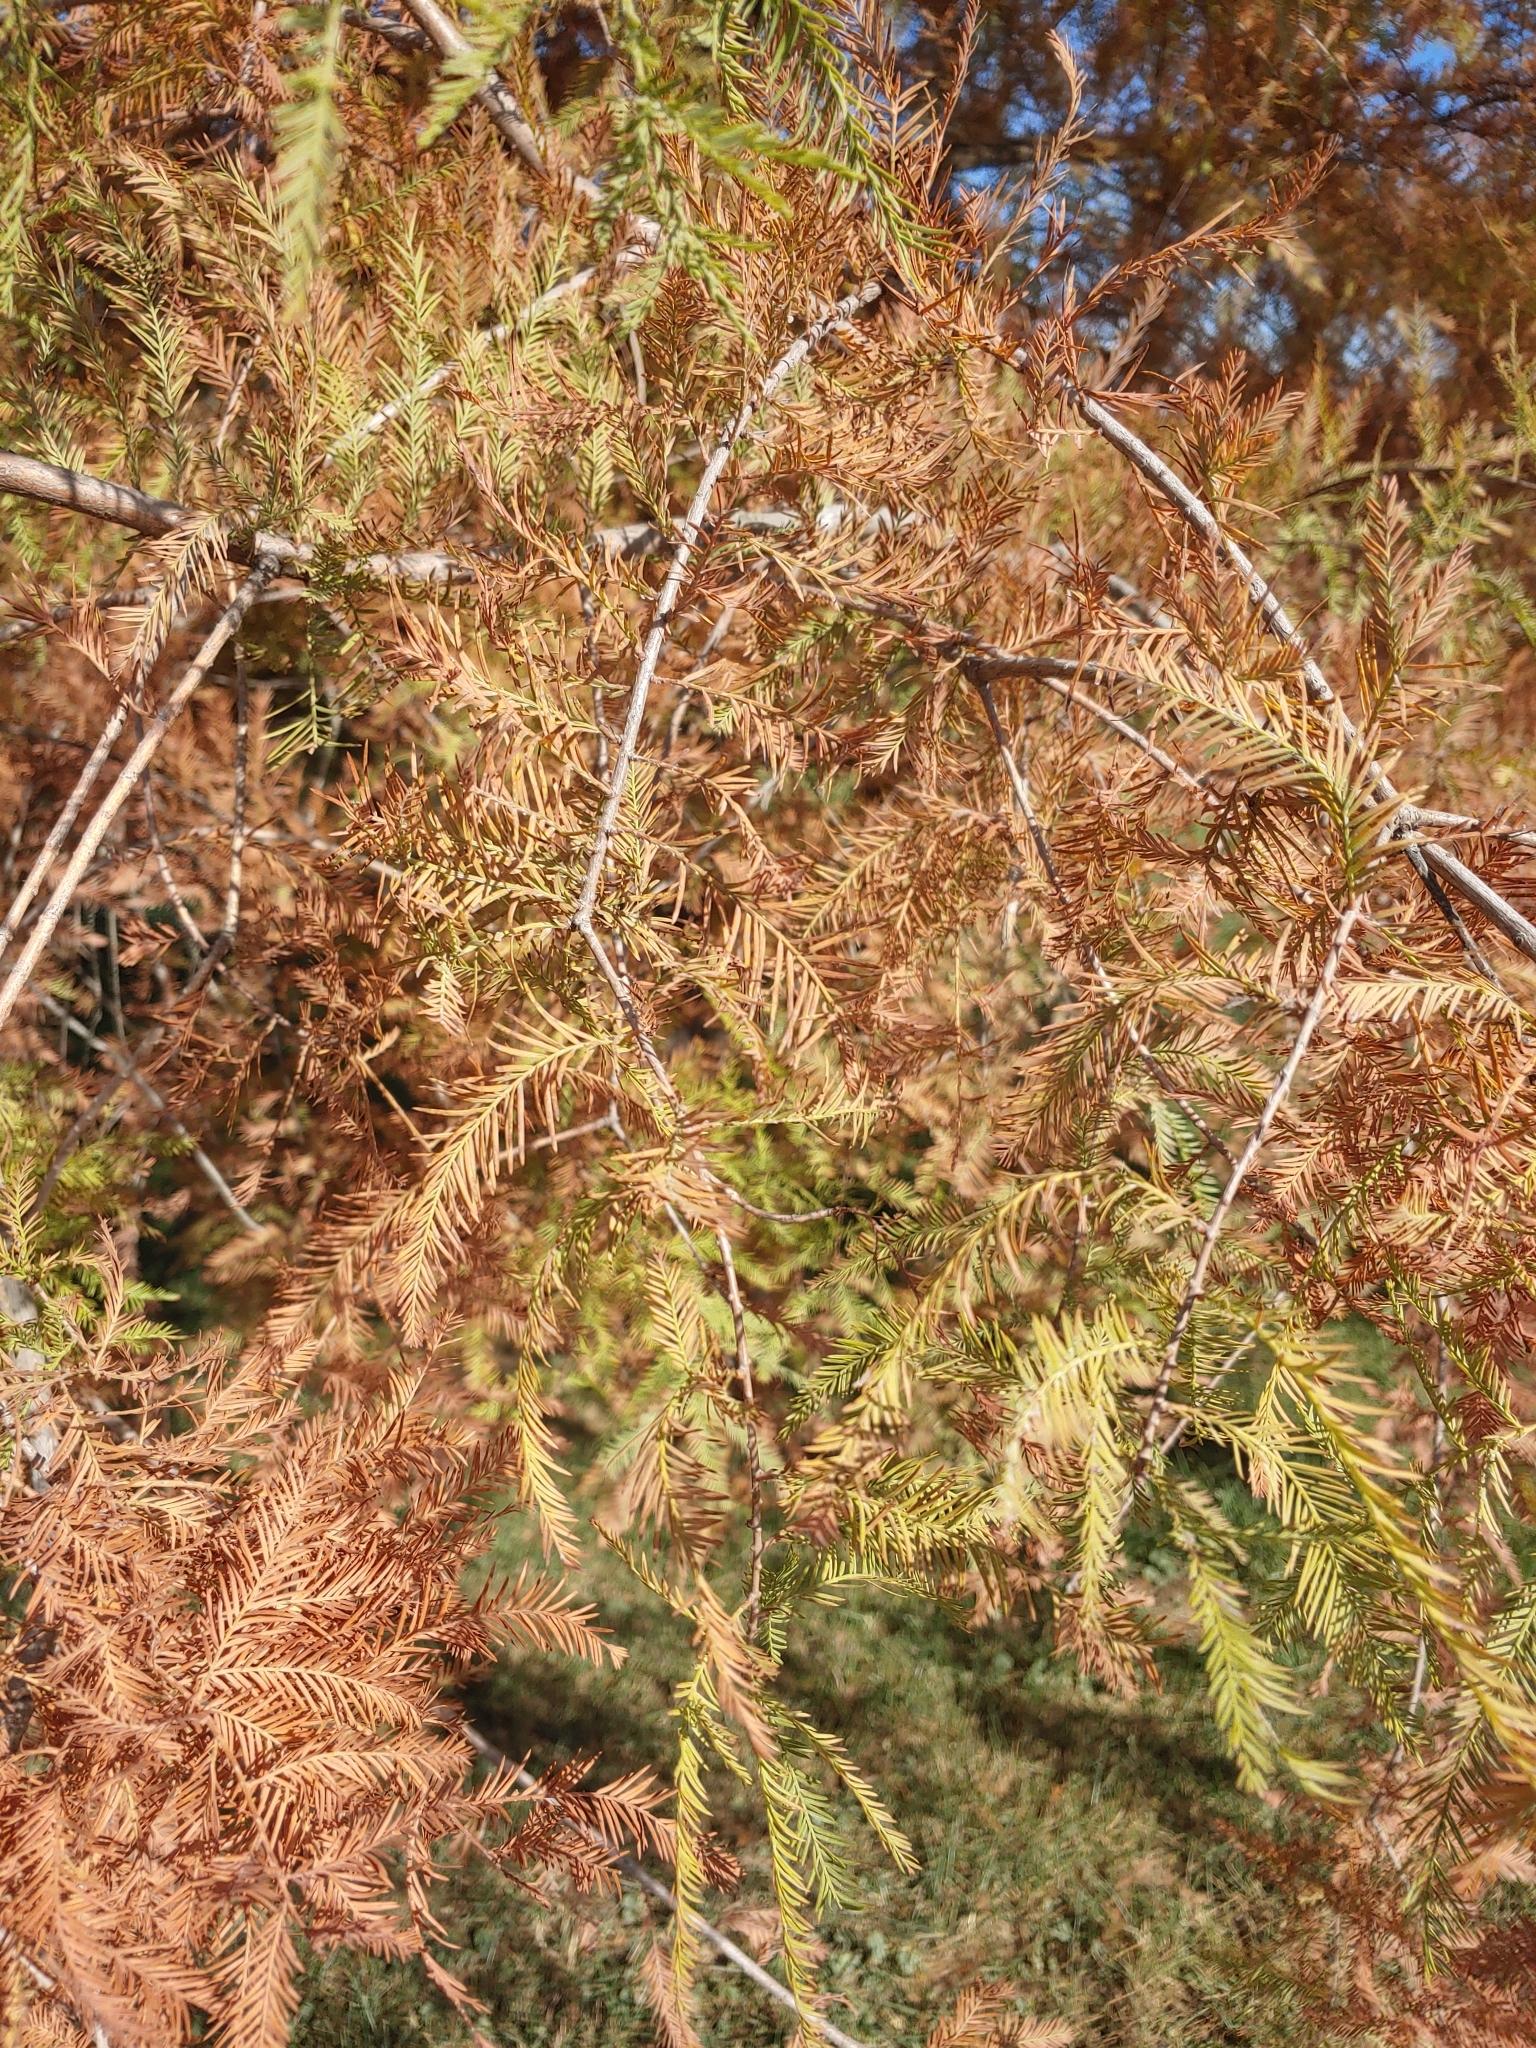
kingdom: Plantae
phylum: Tracheophyta
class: Pinopsida
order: Pinales
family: Cupressaceae
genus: Taxodium
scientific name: Taxodium distichum
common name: Bald cypress
